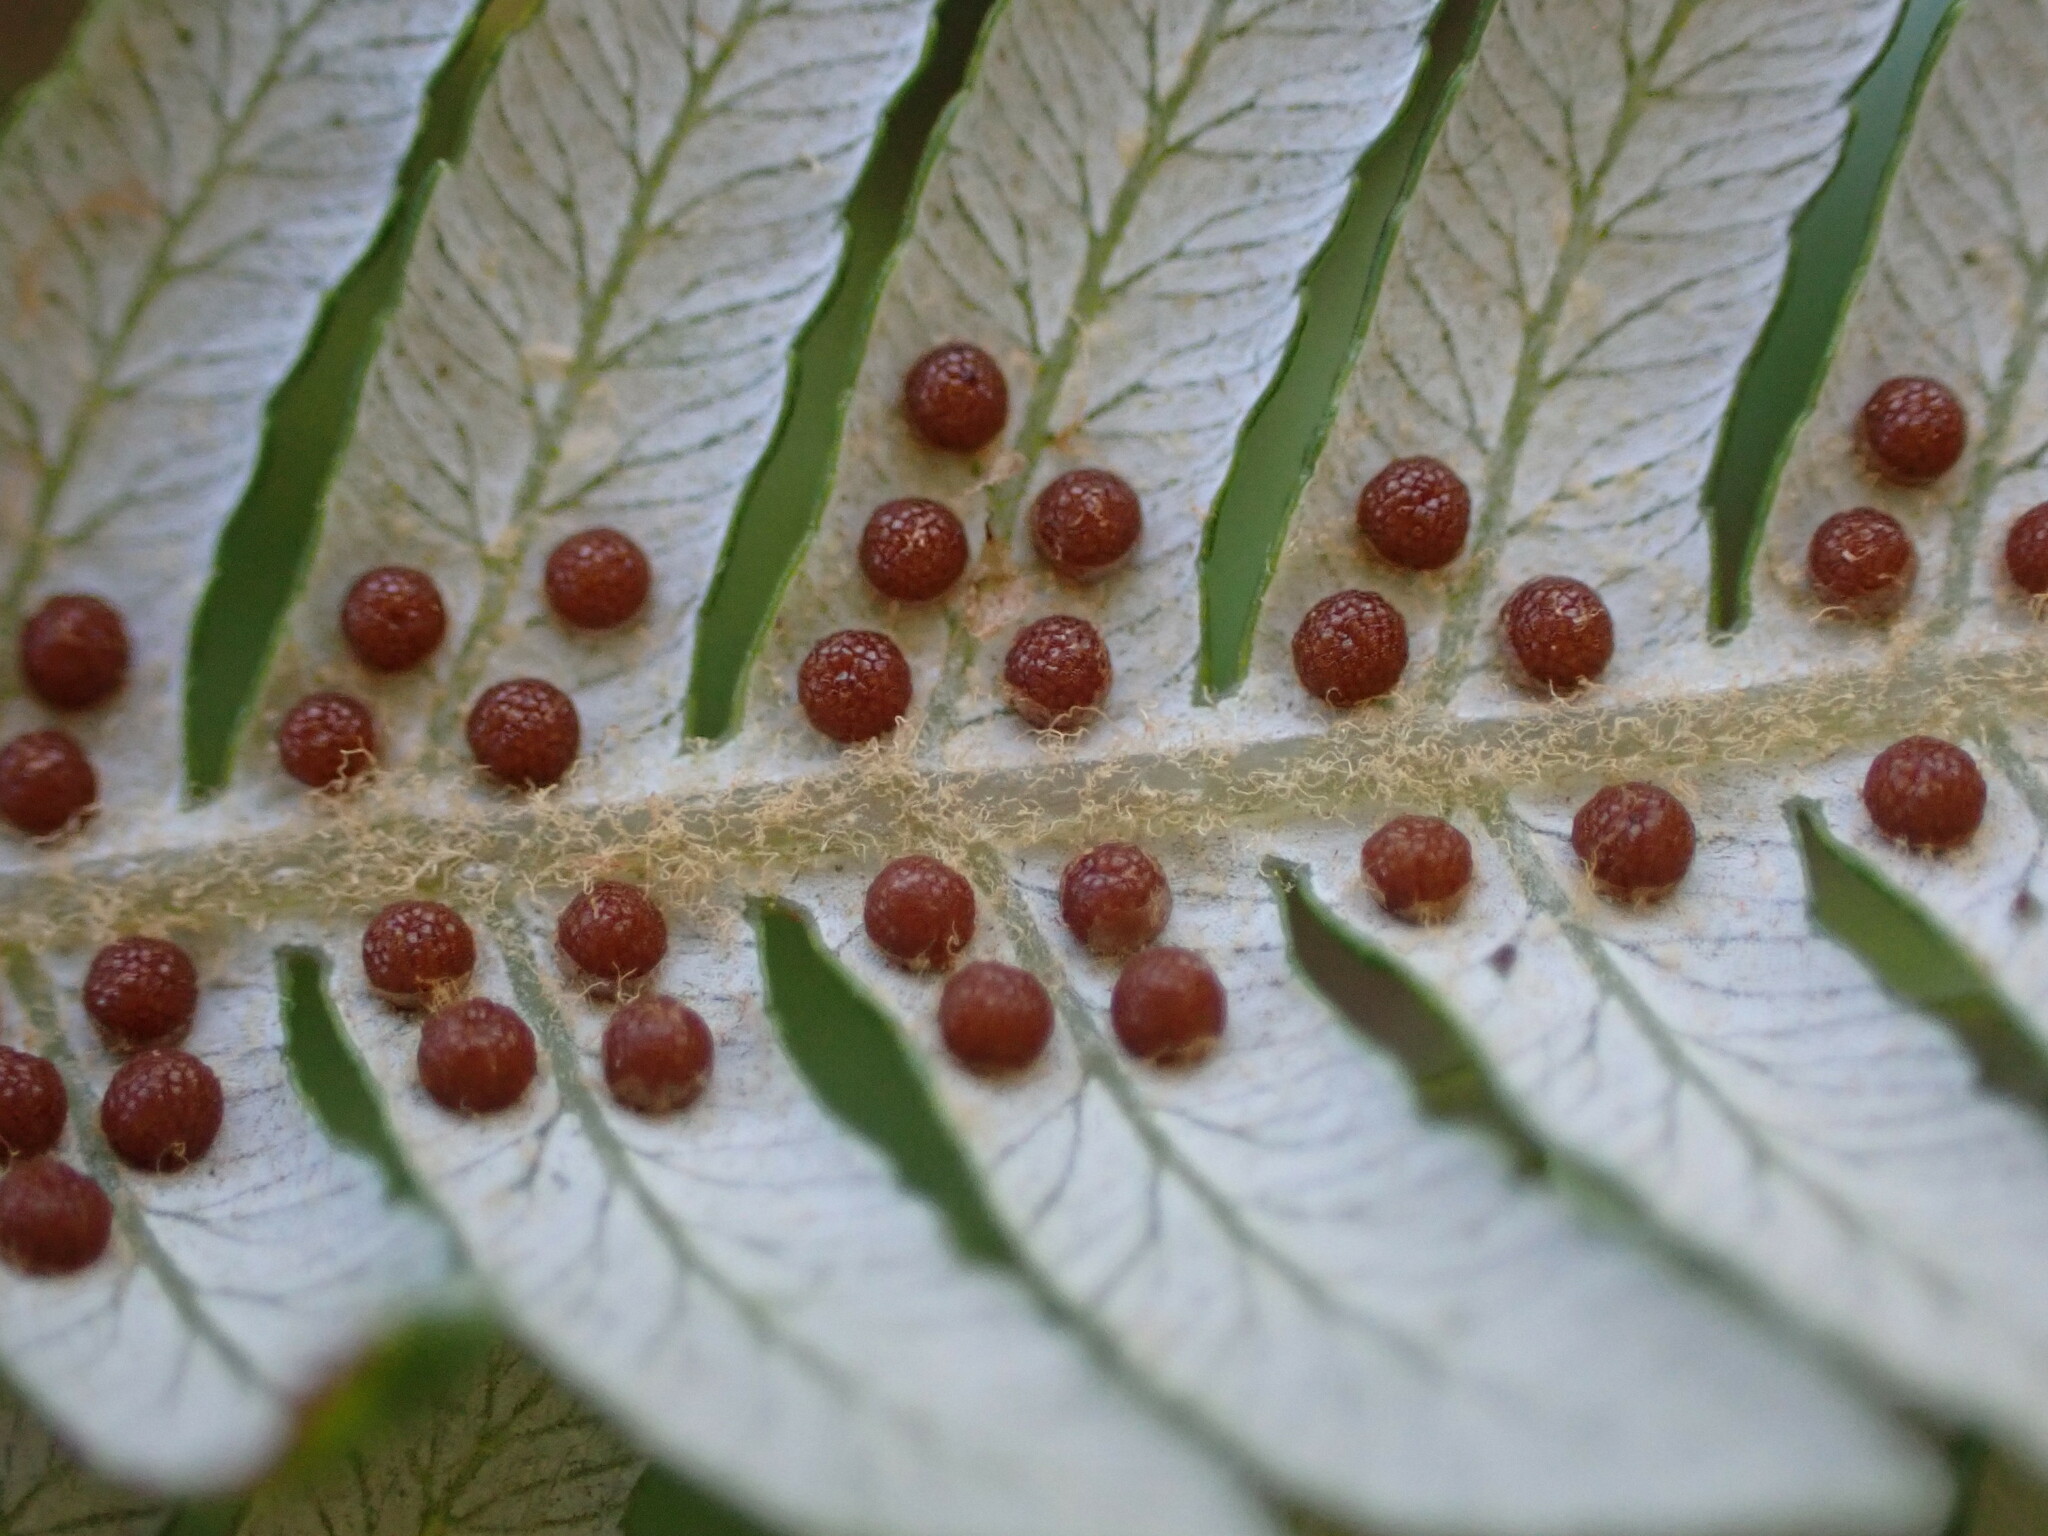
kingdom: Plantae
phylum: Tracheophyta
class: Polypodiopsida
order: Cyatheales
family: Cyatheaceae
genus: Alsophila
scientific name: Alsophila dealbata
